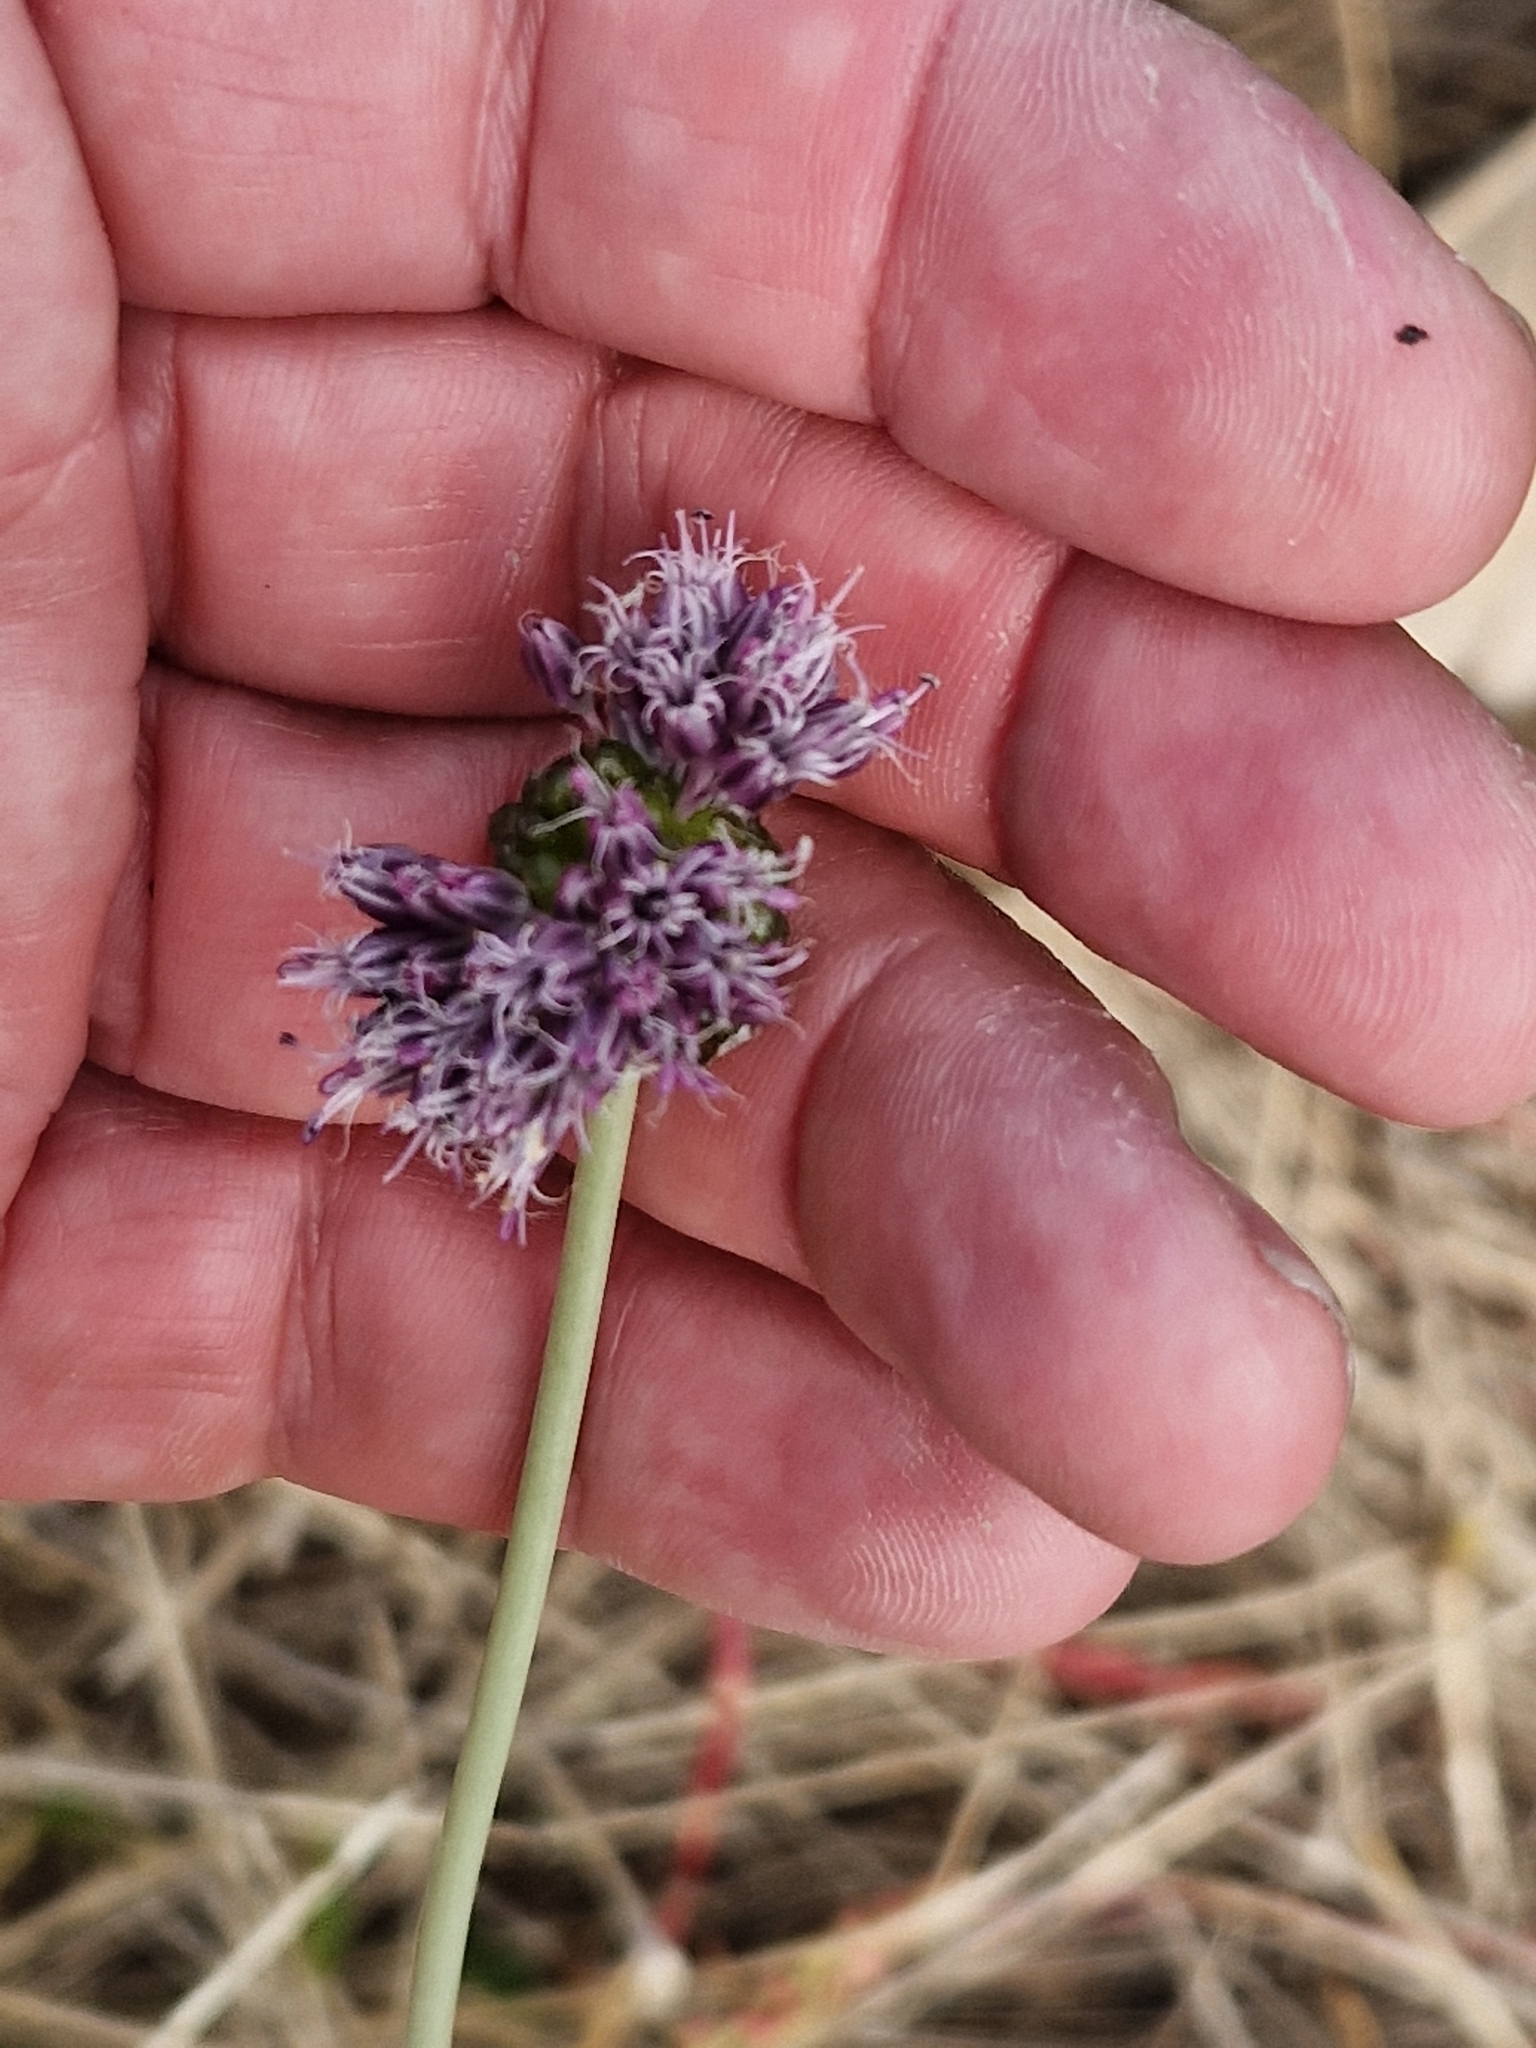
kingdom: Plantae
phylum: Tracheophyta
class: Liliopsida
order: Asparagales
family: Amaryllidaceae
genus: Allium
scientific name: Allium vineale
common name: Crow garlic
